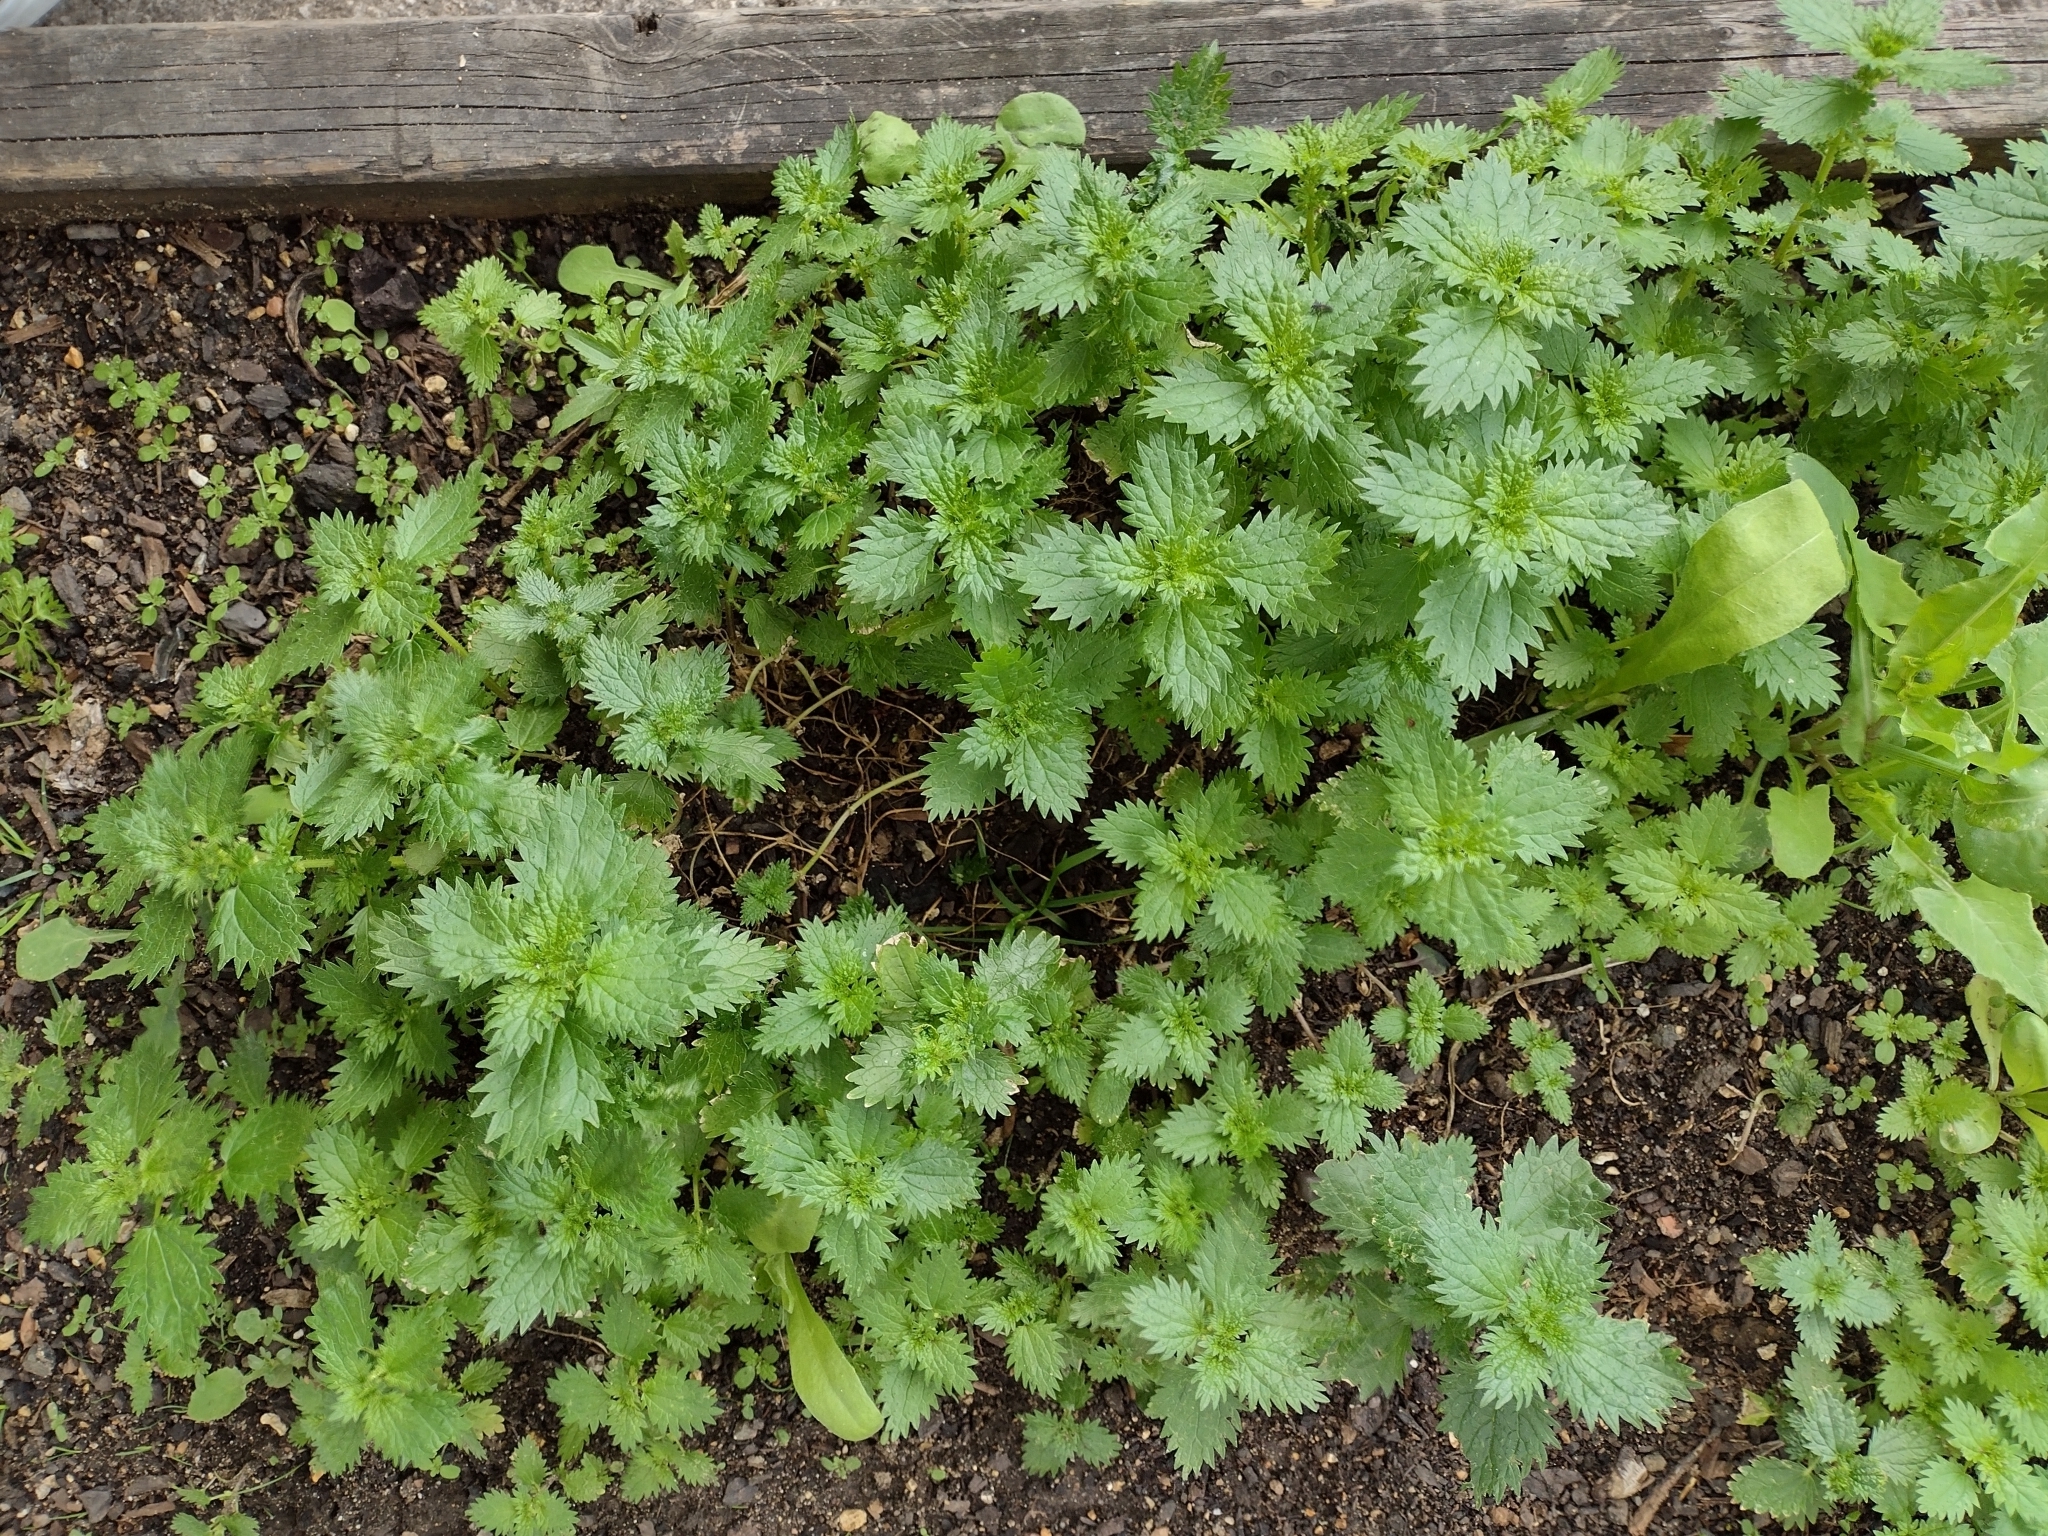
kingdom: Plantae
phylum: Tracheophyta
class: Magnoliopsida
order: Rosales
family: Urticaceae
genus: Urtica
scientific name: Urtica urens
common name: Dwarf nettle
